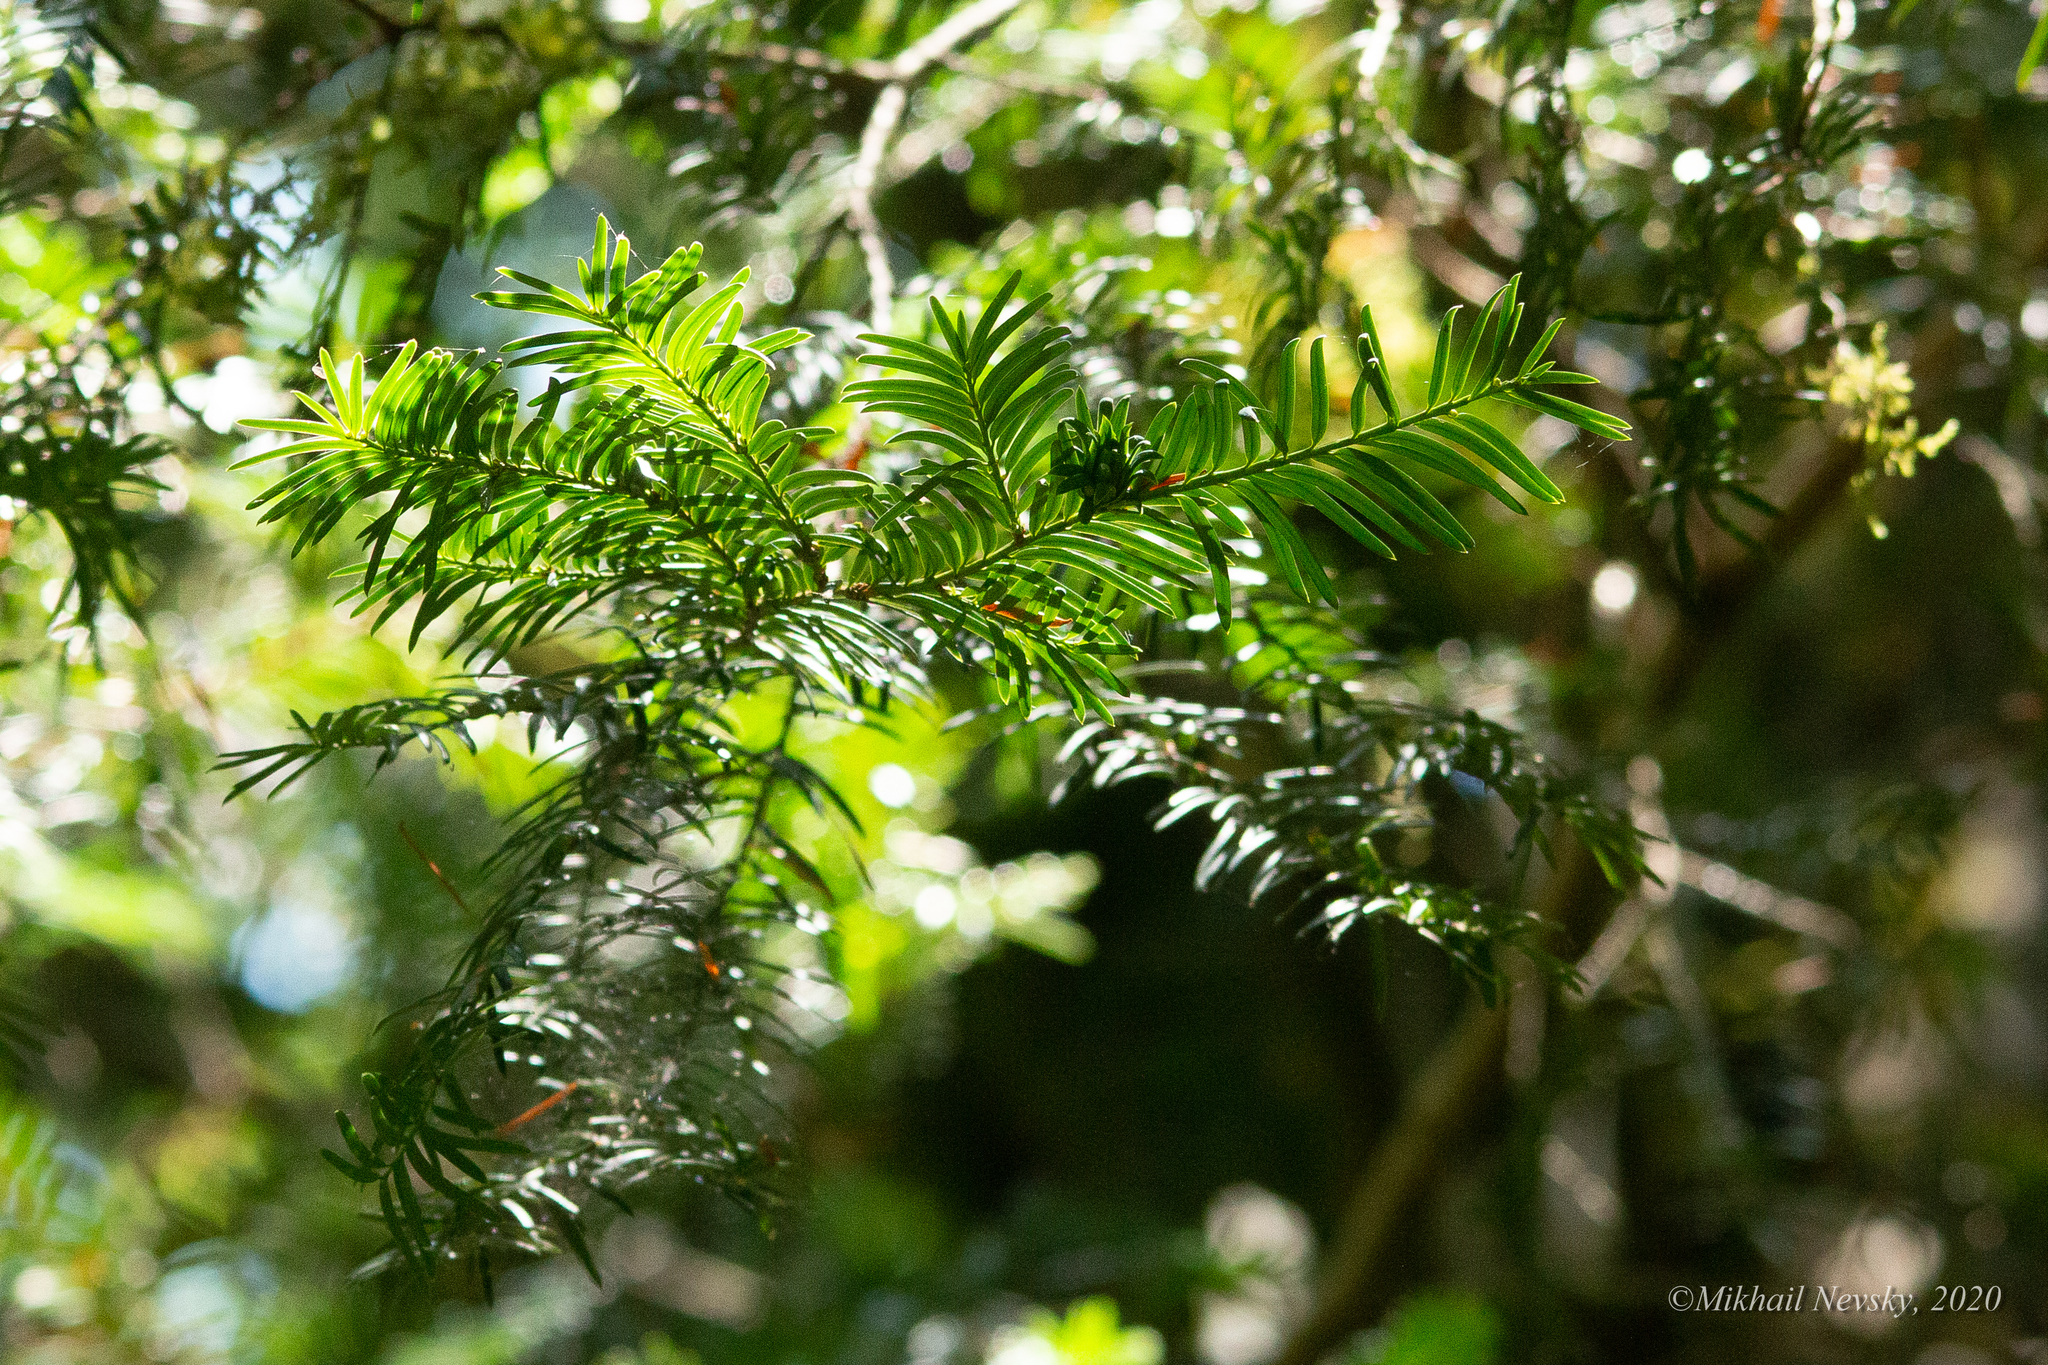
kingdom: Plantae
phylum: Tracheophyta
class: Pinopsida
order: Pinales
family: Taxaceae
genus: Taxus
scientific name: Taxus baccata
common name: Yew
